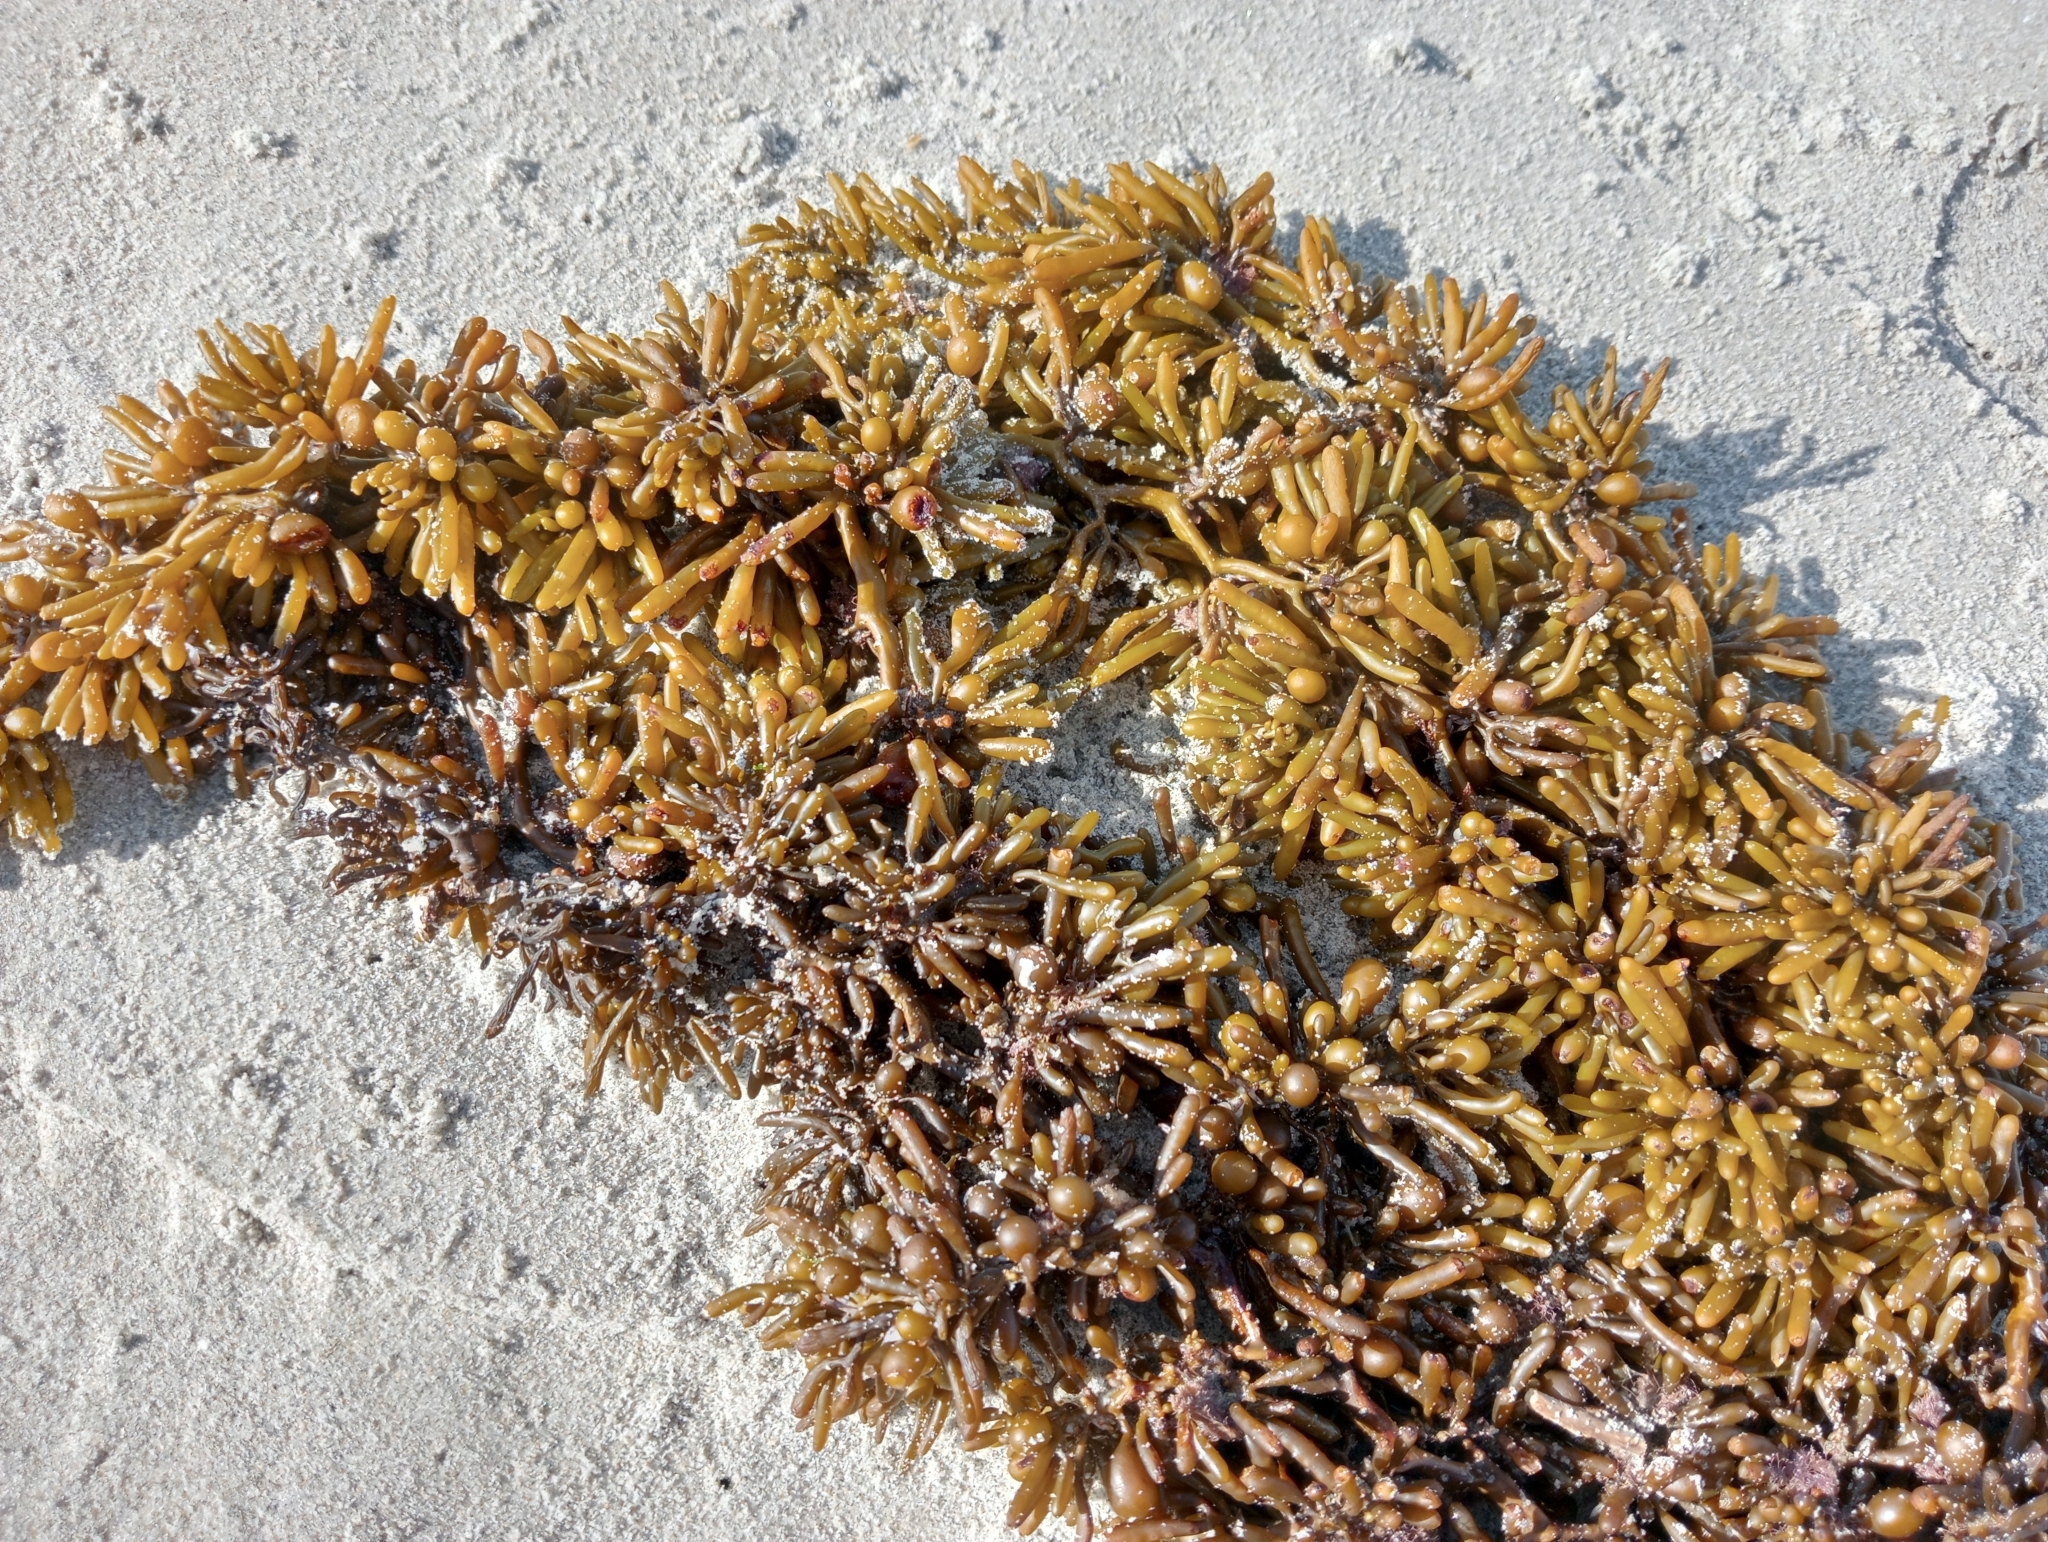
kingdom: Chromista
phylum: Ochrophyta
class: Phaeophyceae
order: Fucales
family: Sargassaceae
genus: Cystophora
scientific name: Cystophora torulosa
